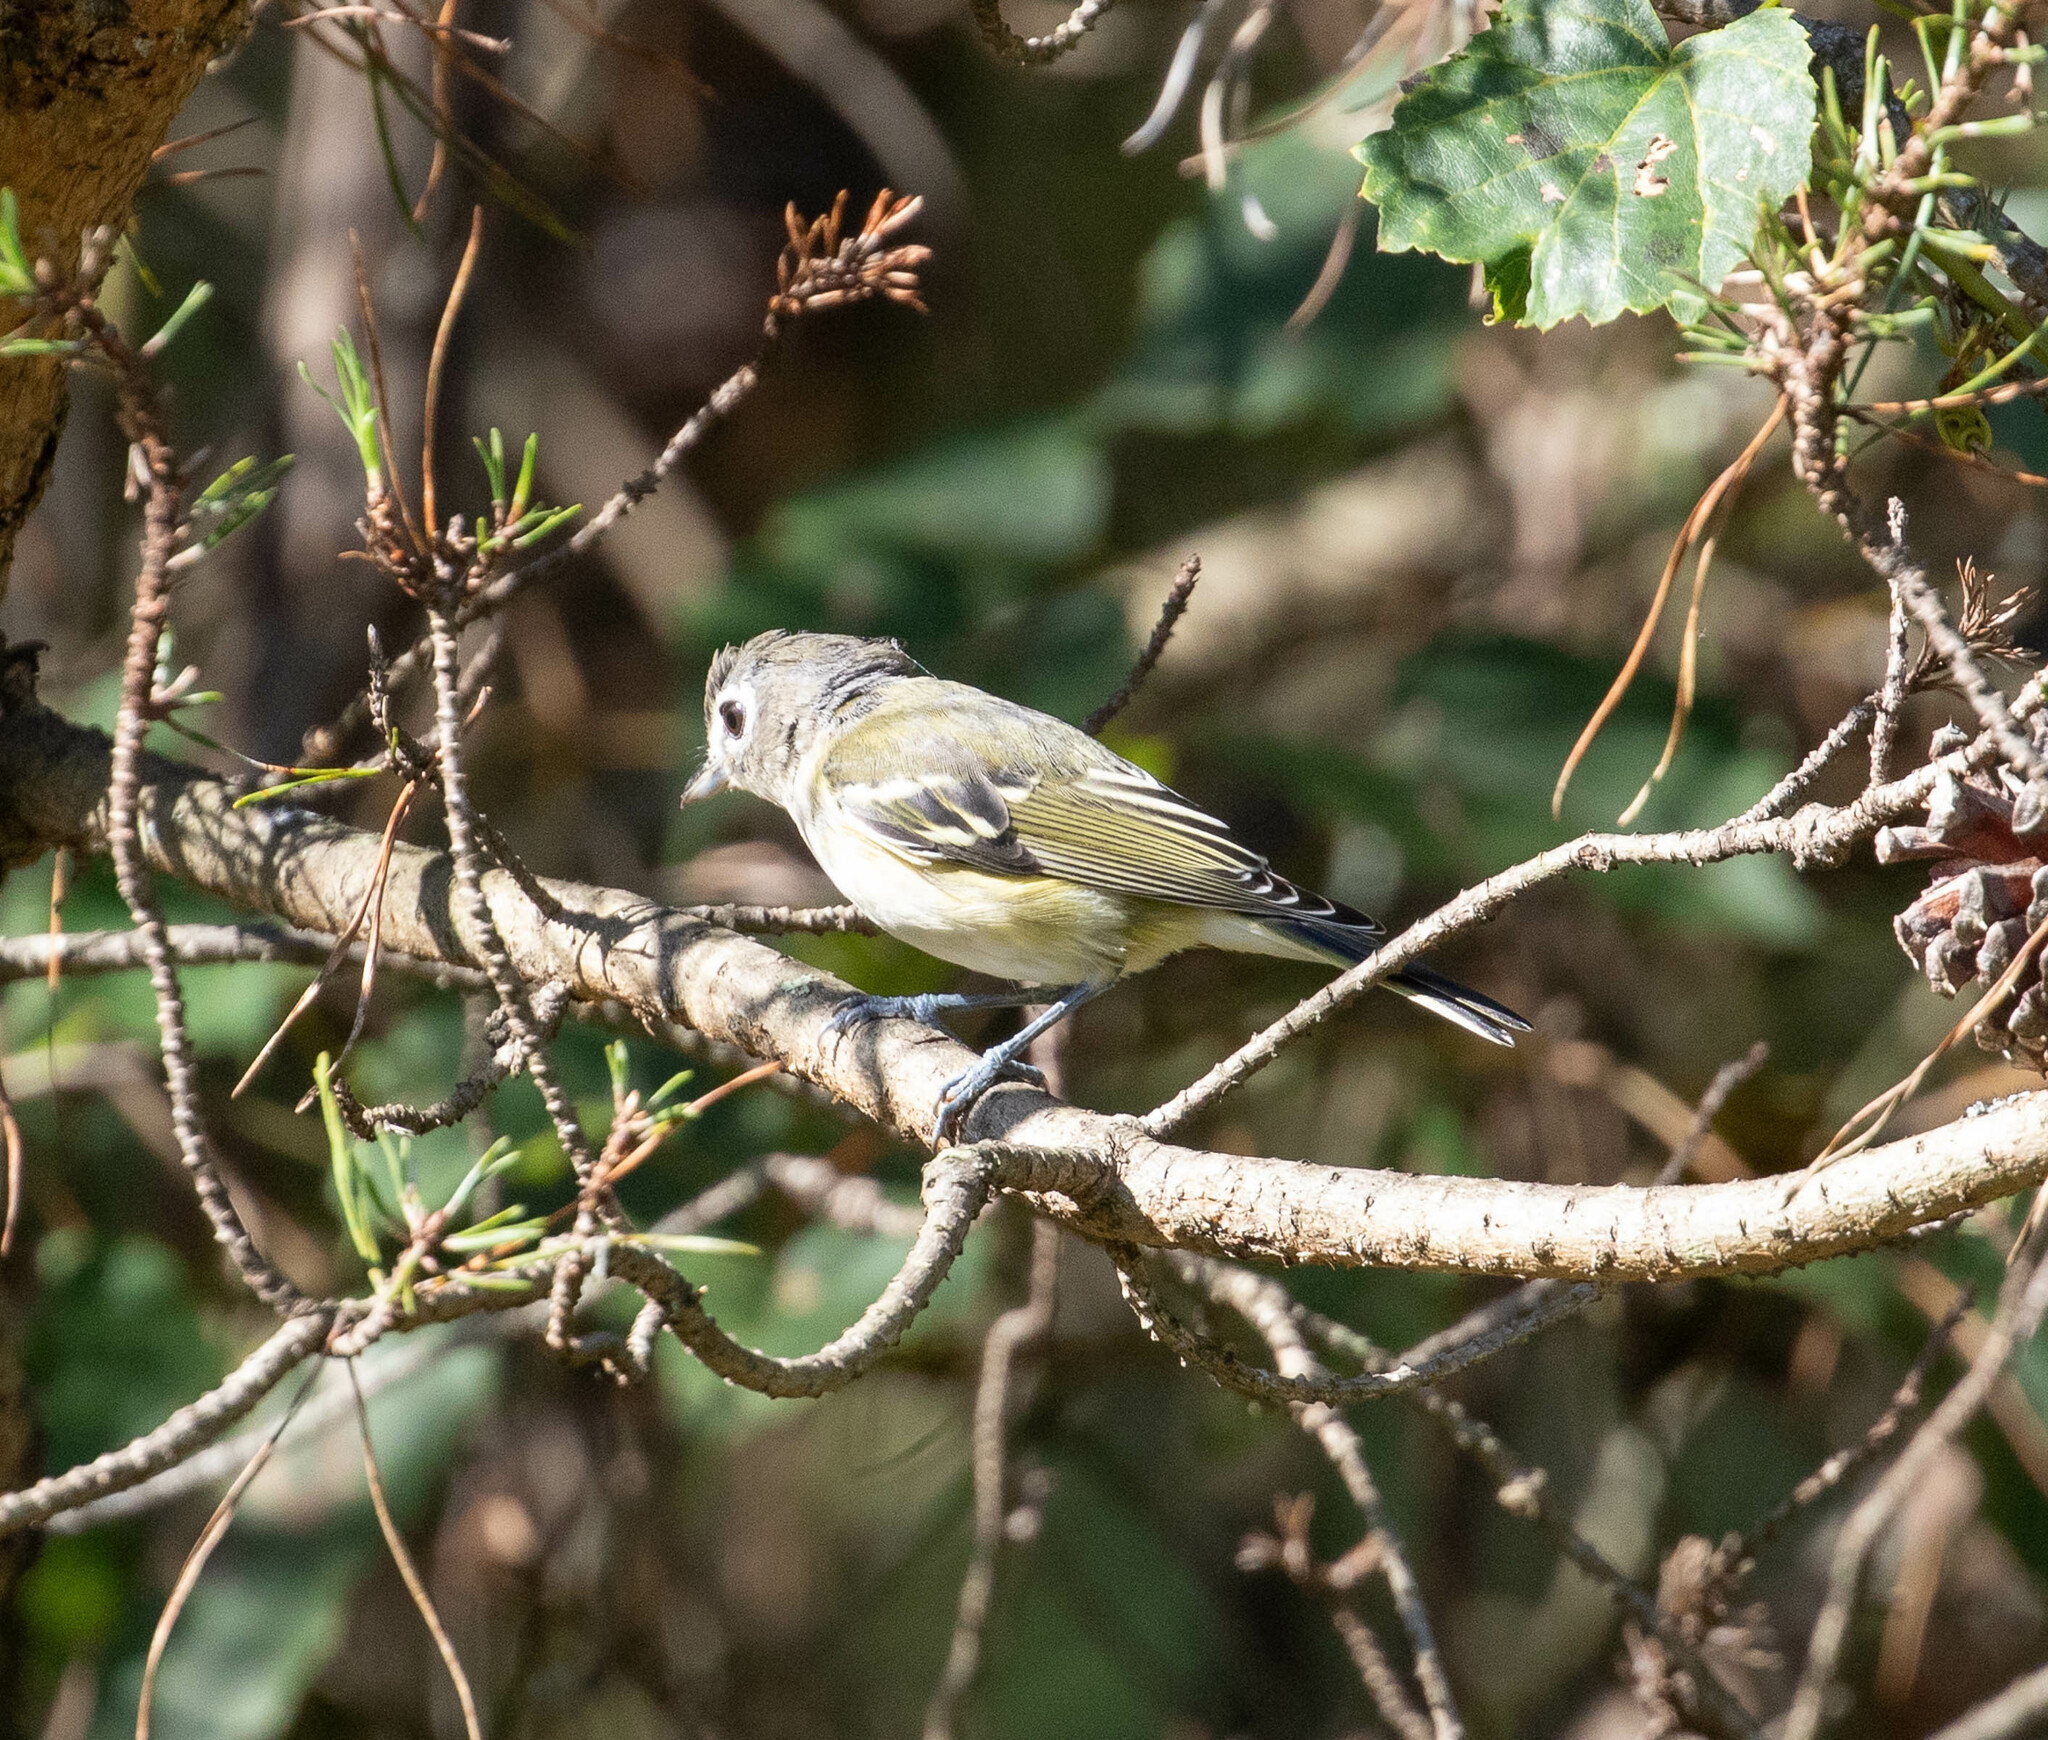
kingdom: Animalia
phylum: Chordata
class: Aves
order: Passeriformes
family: Vireonidae
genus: Vireo
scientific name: Vireo solitarius
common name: Blue-headed vireo
